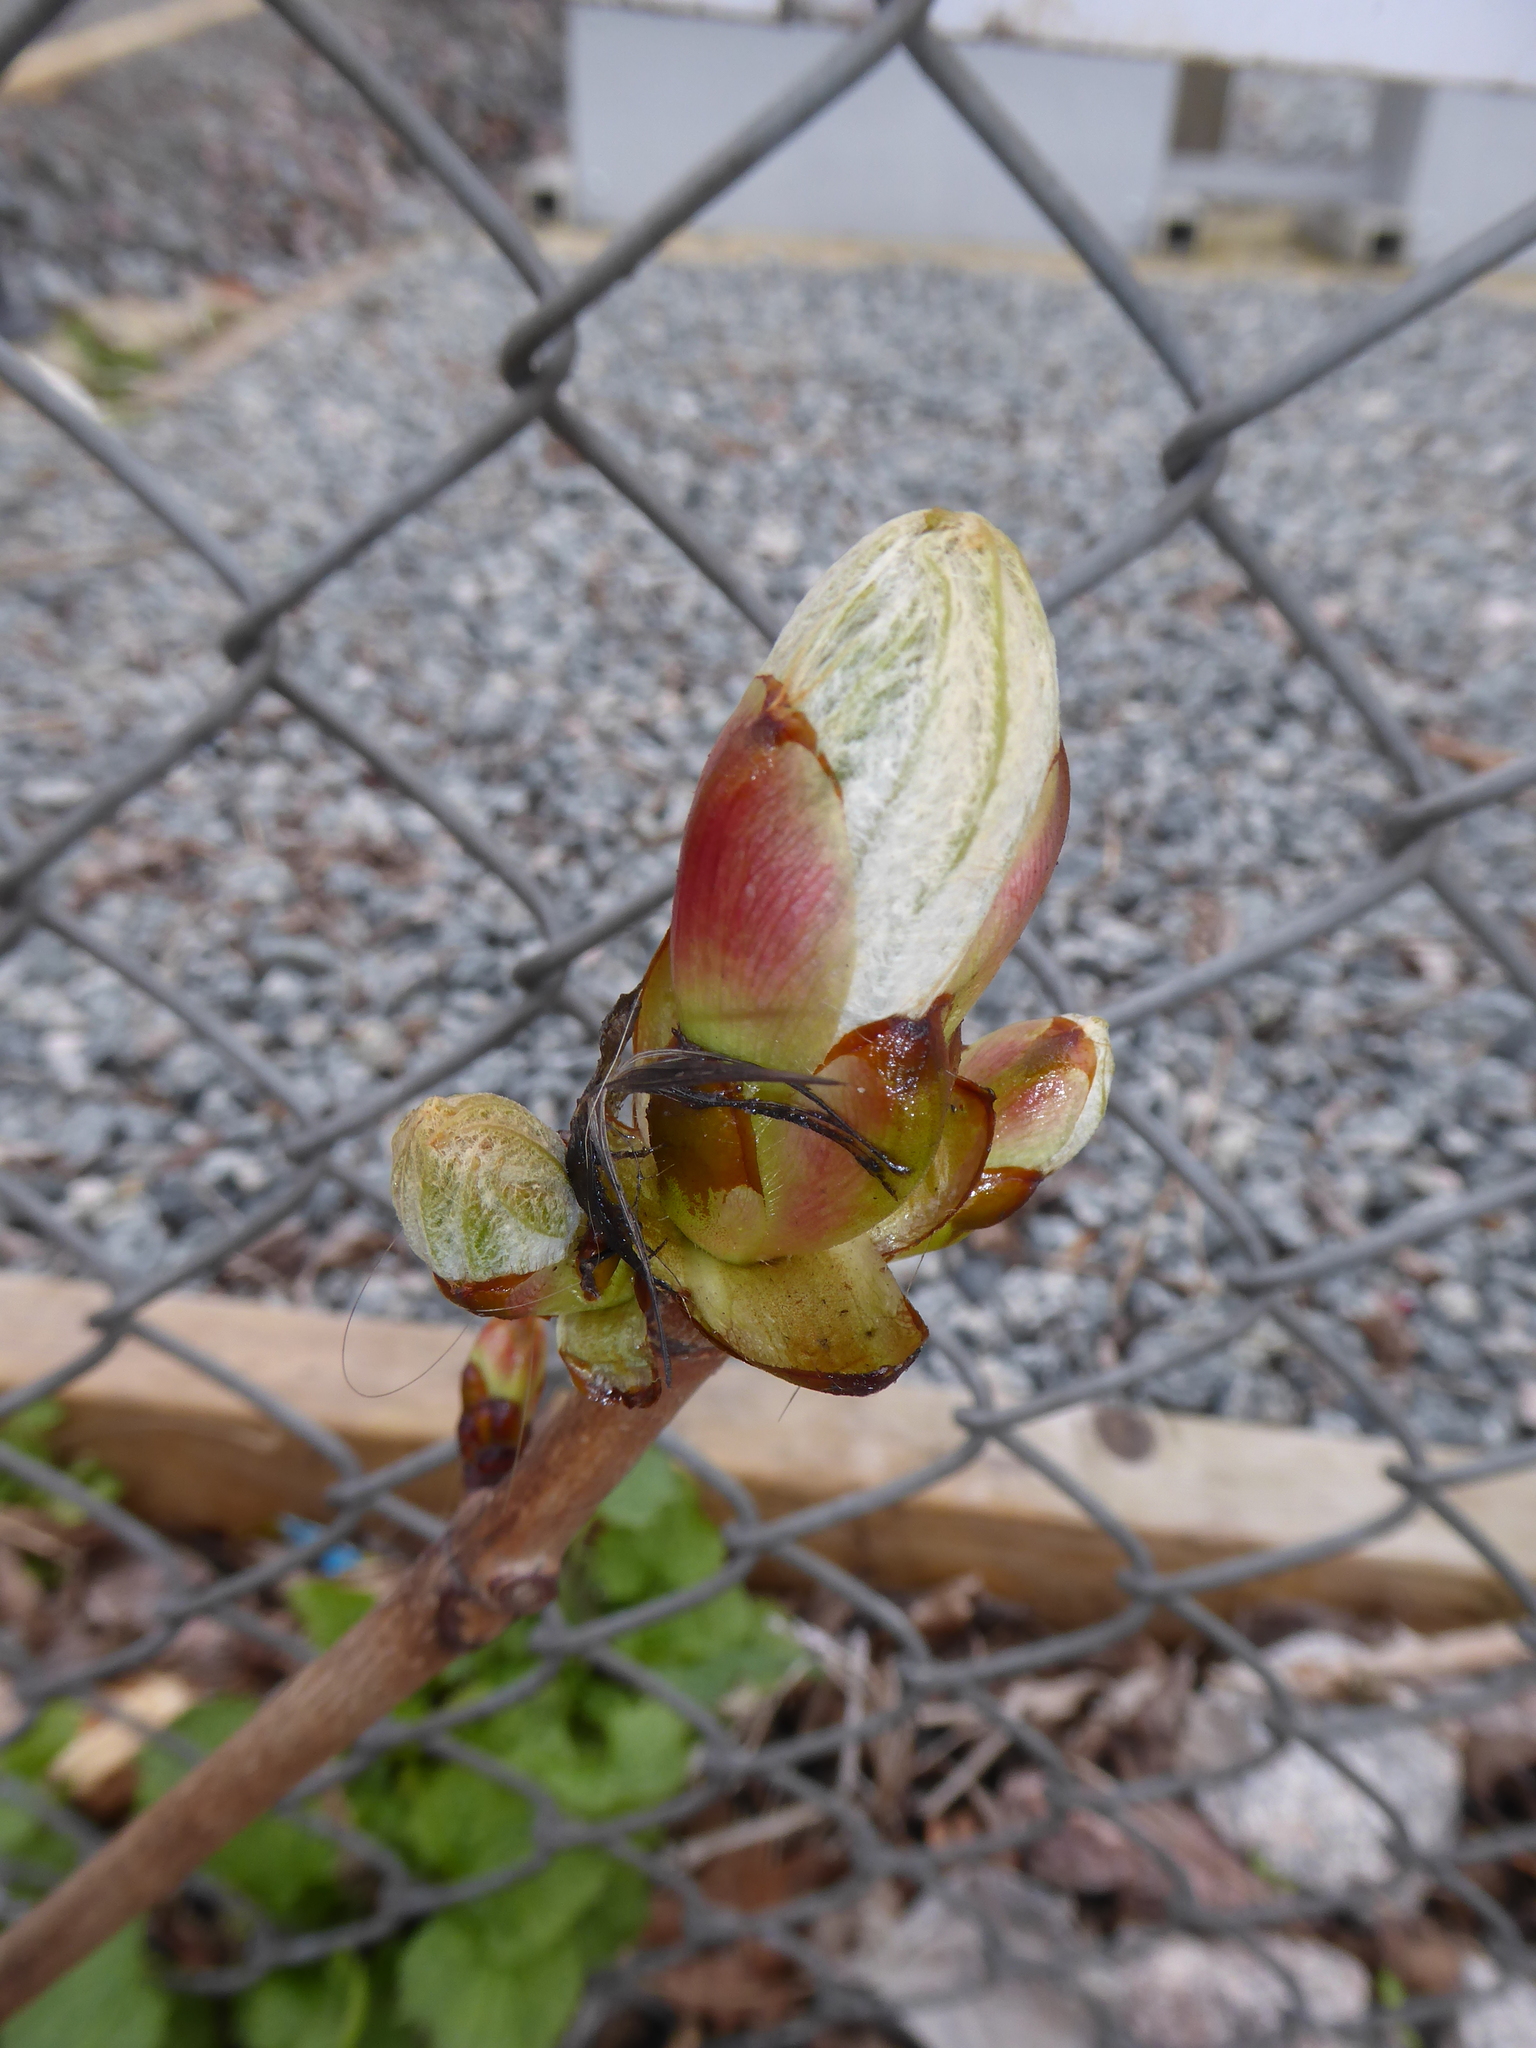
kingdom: Plantae
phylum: Tracheophyta
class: Magnoliopsida
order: Sapindales
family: Sapindaceae
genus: Aesculus
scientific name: Aesculus hippocastanum
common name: Horse-chestnut
